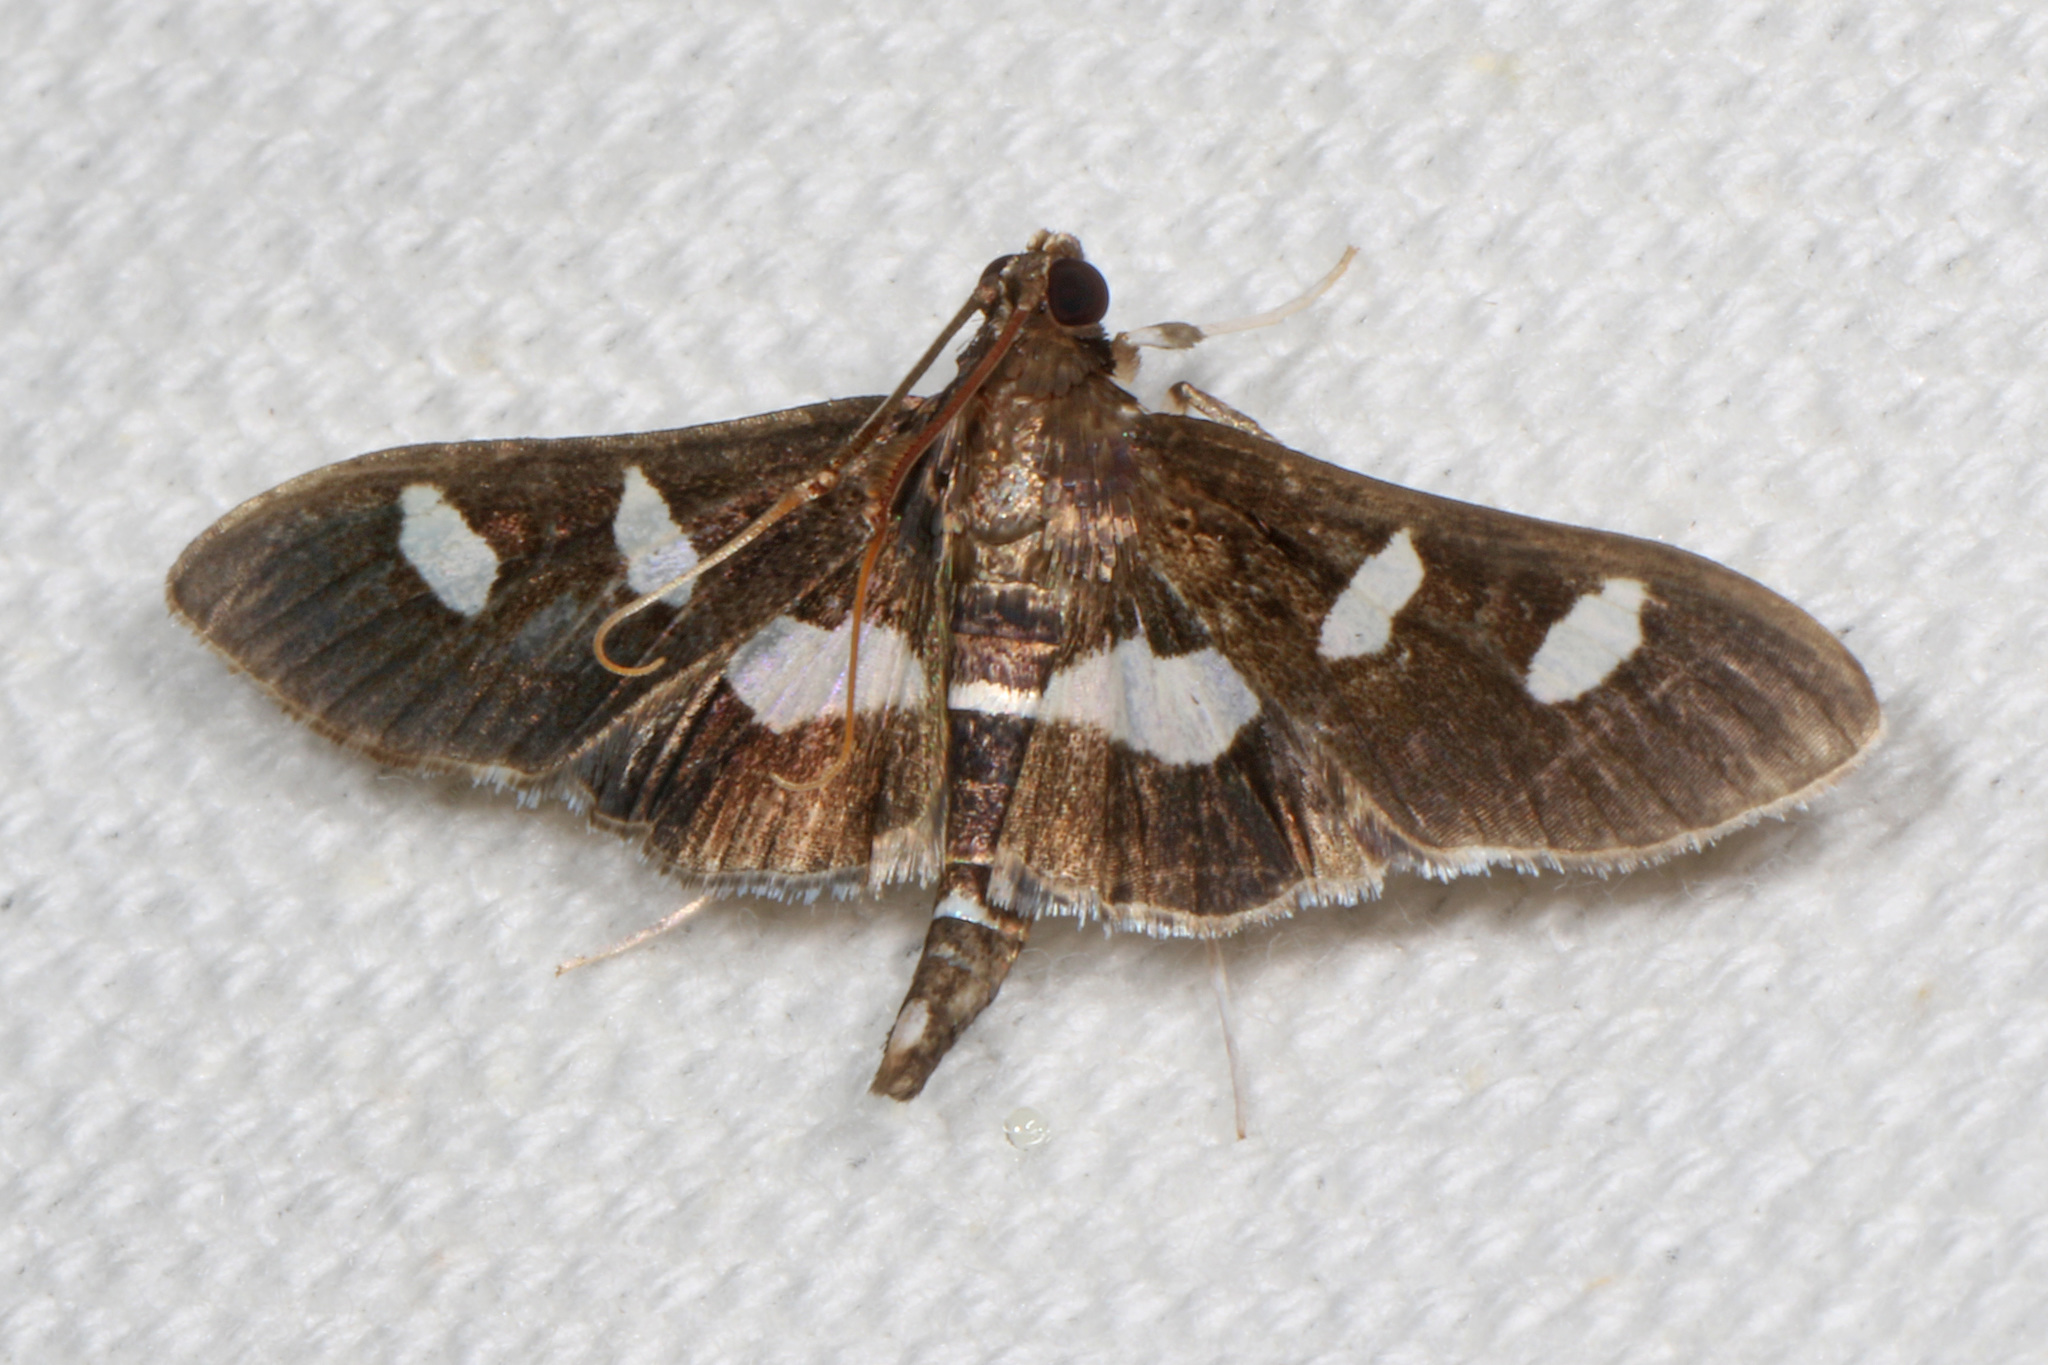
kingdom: Animalia
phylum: Arthropoda
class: Insecta
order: Lepidoptera
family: Crambidae
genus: Desmia
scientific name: Desmia
